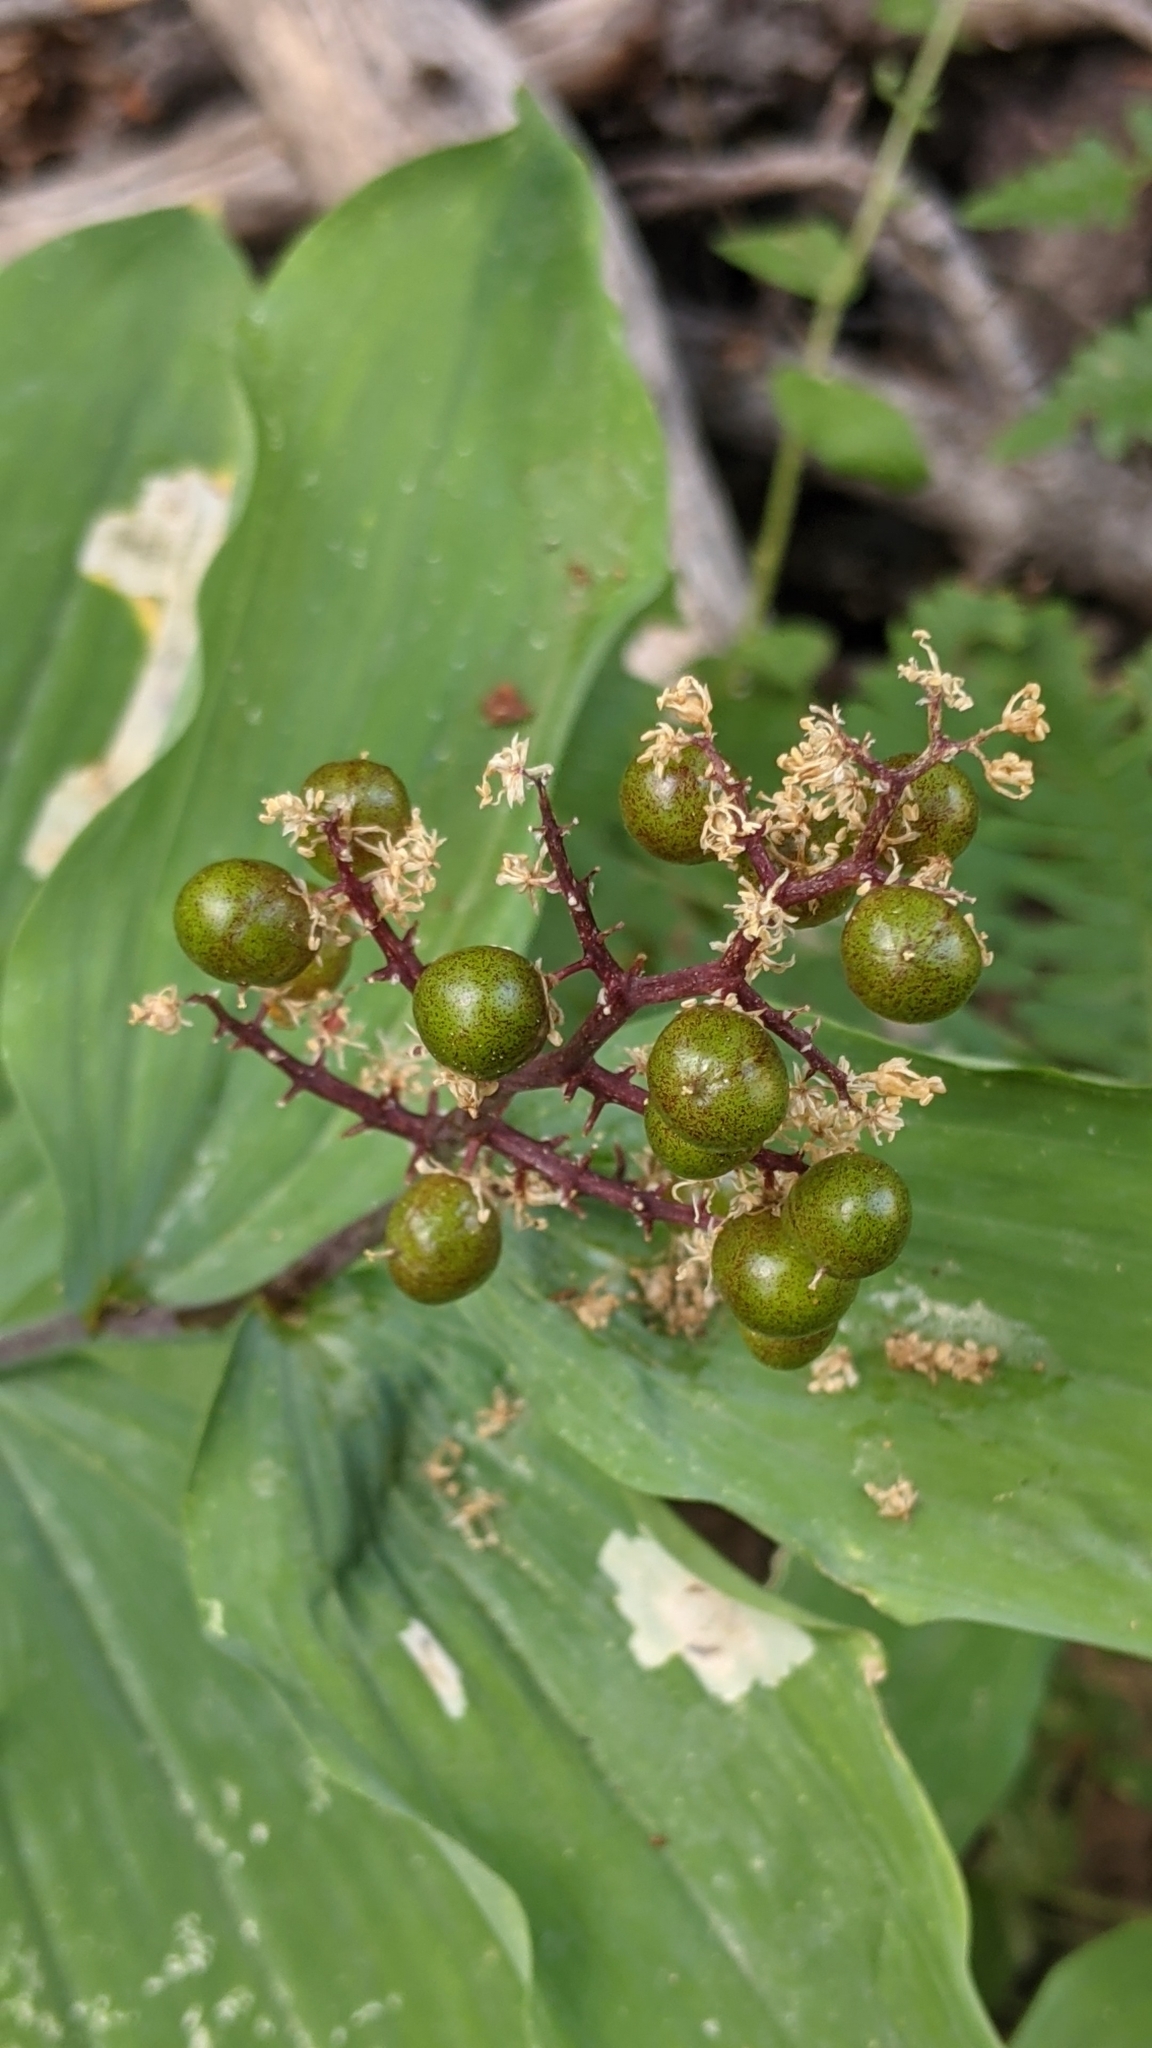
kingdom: Plantae
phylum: Tracheophyta
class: Liliopsida
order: Asparagales
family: Asparagaceae
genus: Maianthemum
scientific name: Maianthemum racemosum
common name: False spikenard
